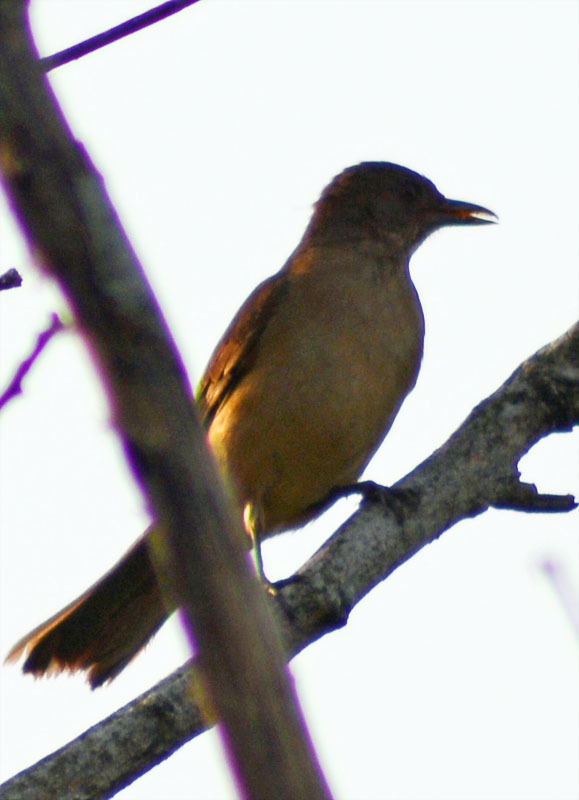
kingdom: Animalia
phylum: Chordata
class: Aves
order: Passeriformes
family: Turdidae
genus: Turdus
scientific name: Turdus grayi
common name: Clay-colored thrush
